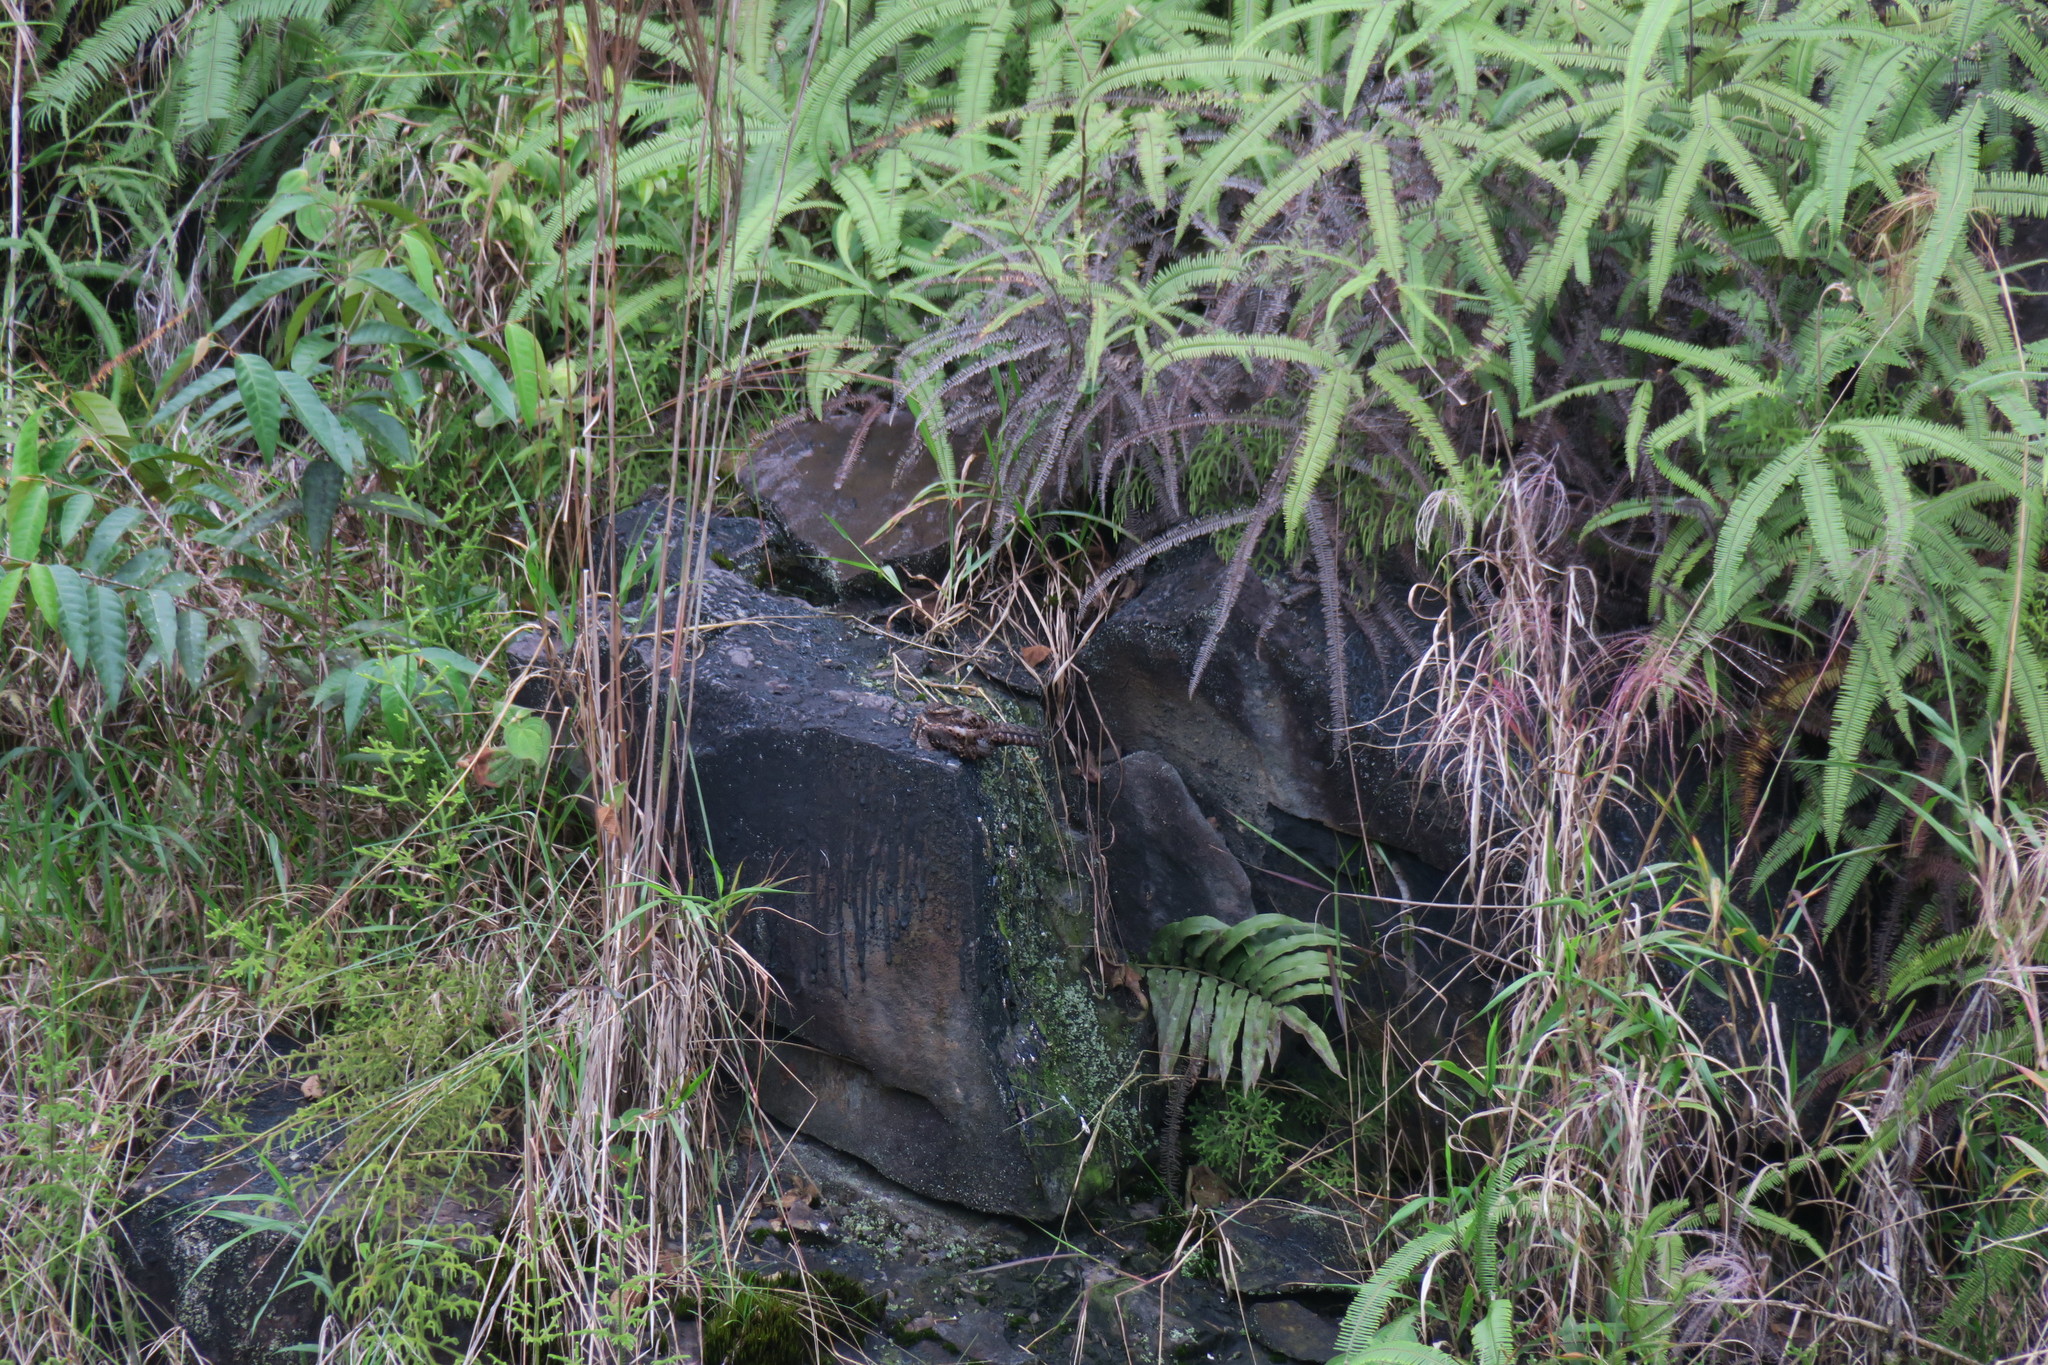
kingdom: Animalia
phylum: Chordata
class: Aves
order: Caprimulgiformes
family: Caprimulgidae
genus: Nyctipolus
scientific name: Nyctipolus nigrescens
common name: Blackish nightjar
